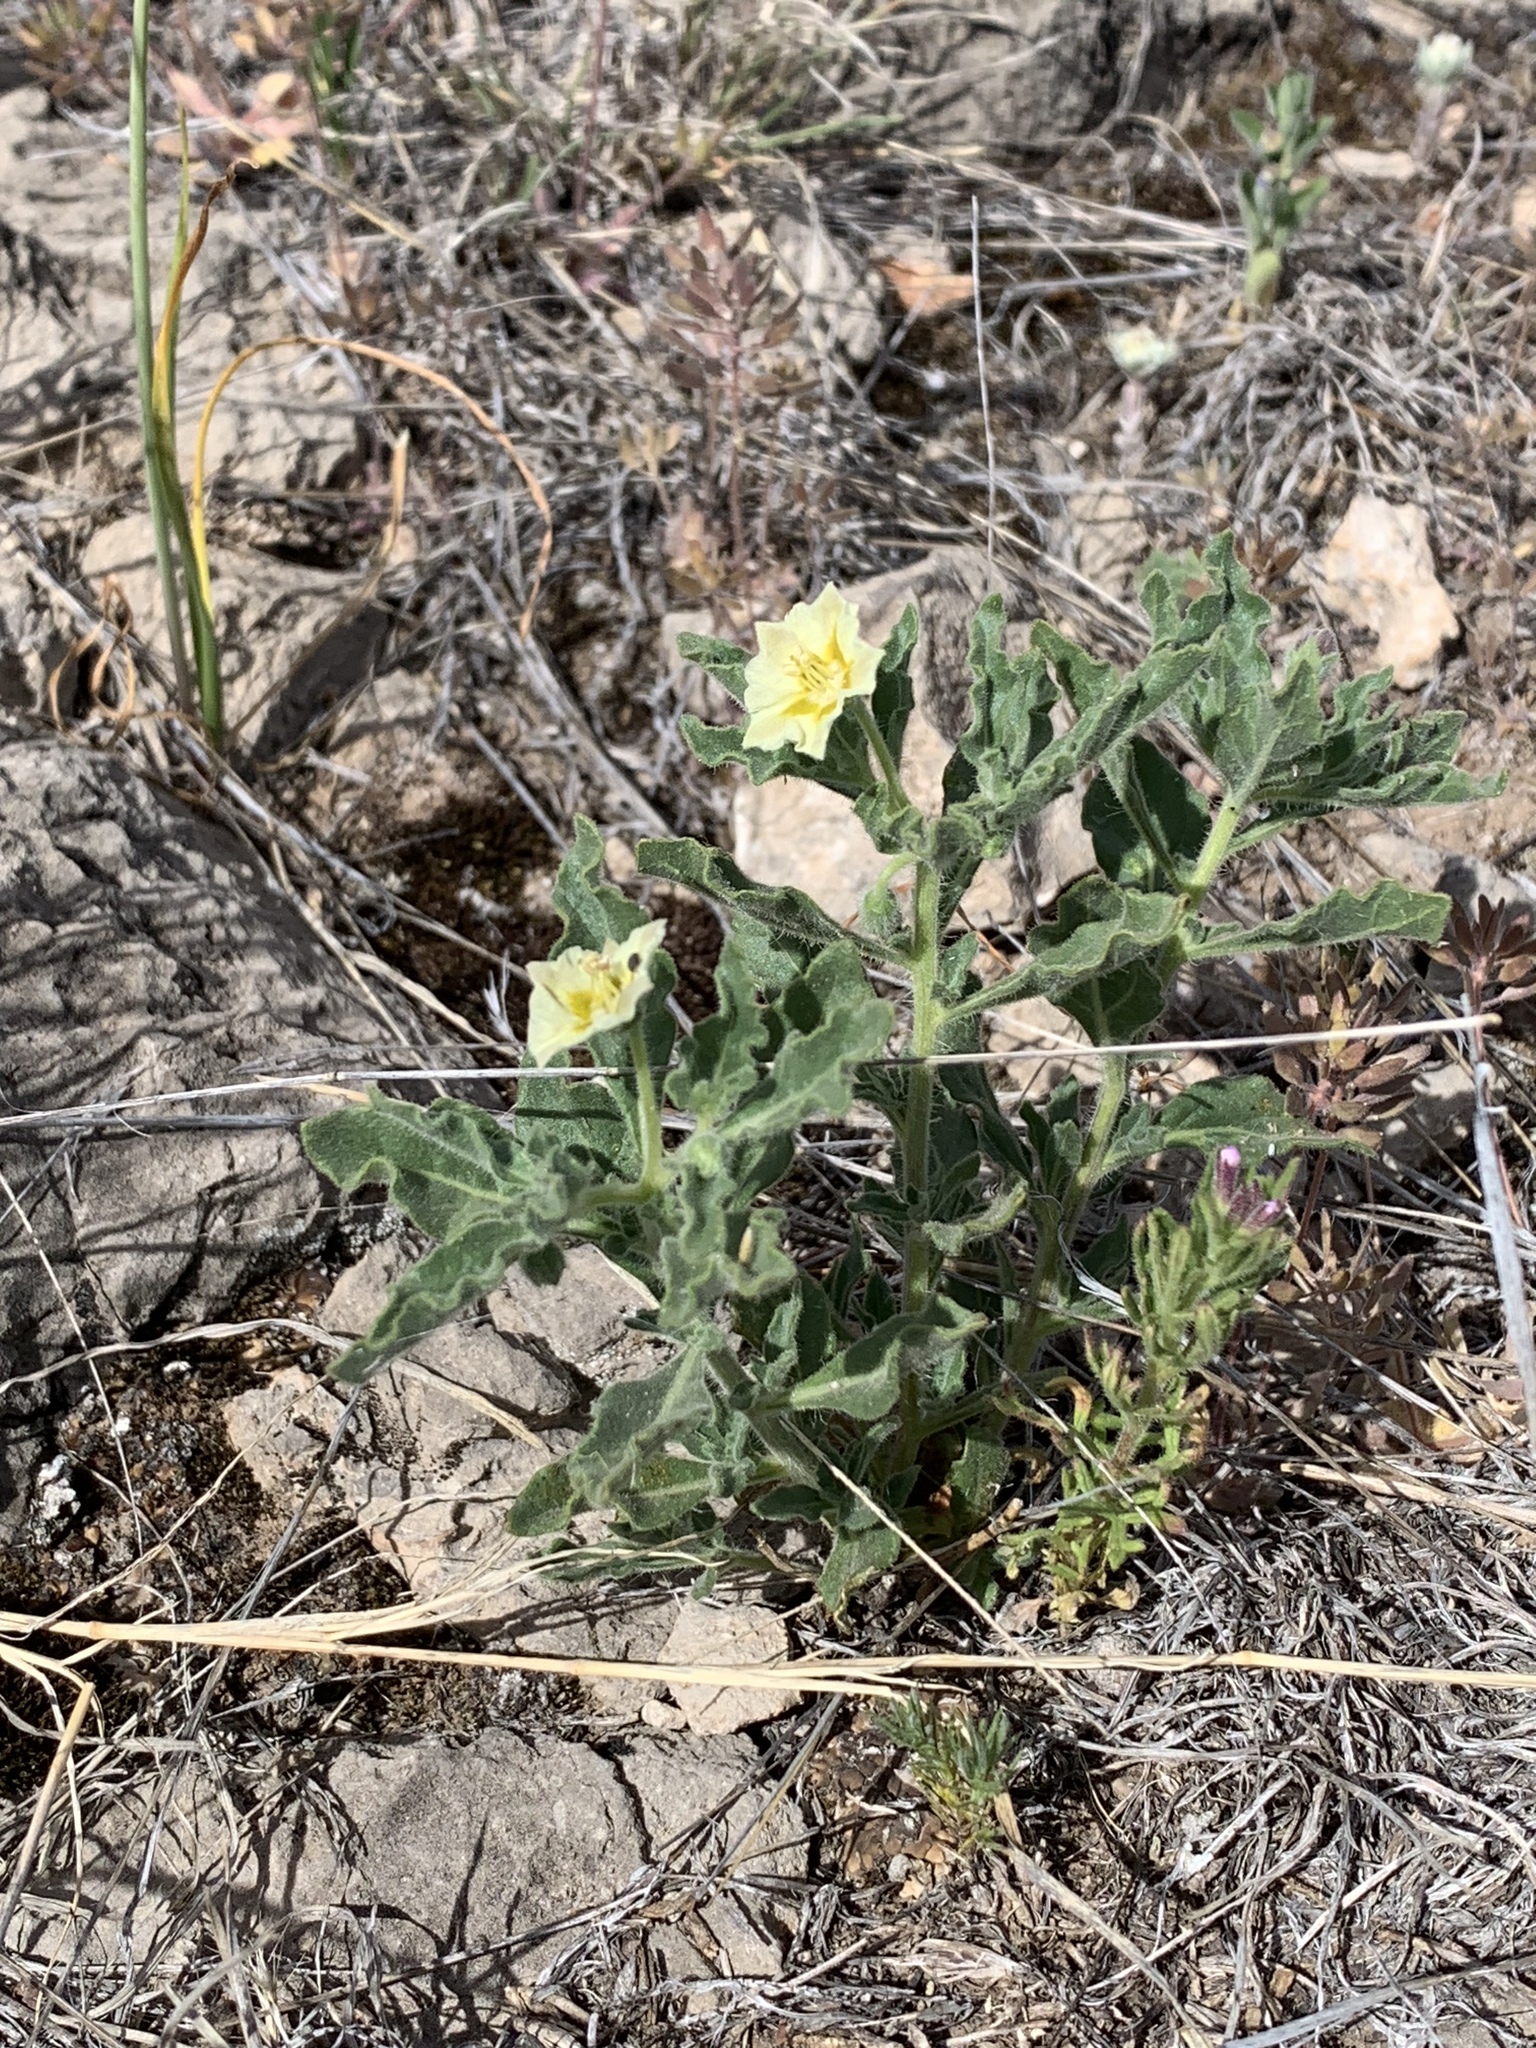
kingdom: Plantae
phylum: Tracheophyta
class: Magnoliopsida
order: Solanales
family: Solanaceae
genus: Chamaesaracha
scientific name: Chamaesaracha sordida
